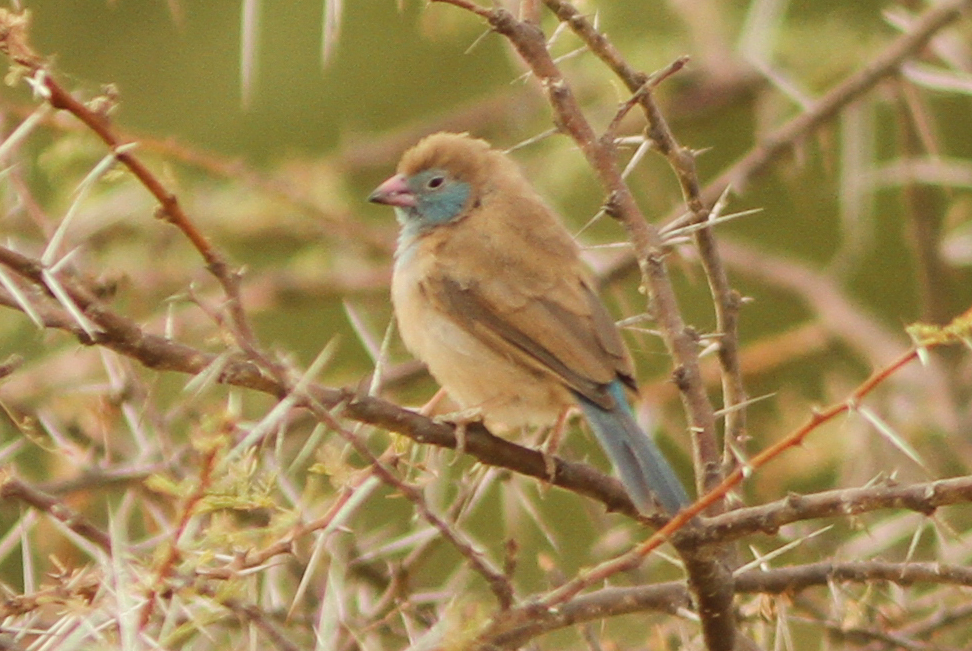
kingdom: Animalia
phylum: Chordata
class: Aves
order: Passeriformes
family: Estrildidae
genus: Uraeginthus
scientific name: Uraeginthus bengalus
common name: Red-cheeked cordon-bleu
